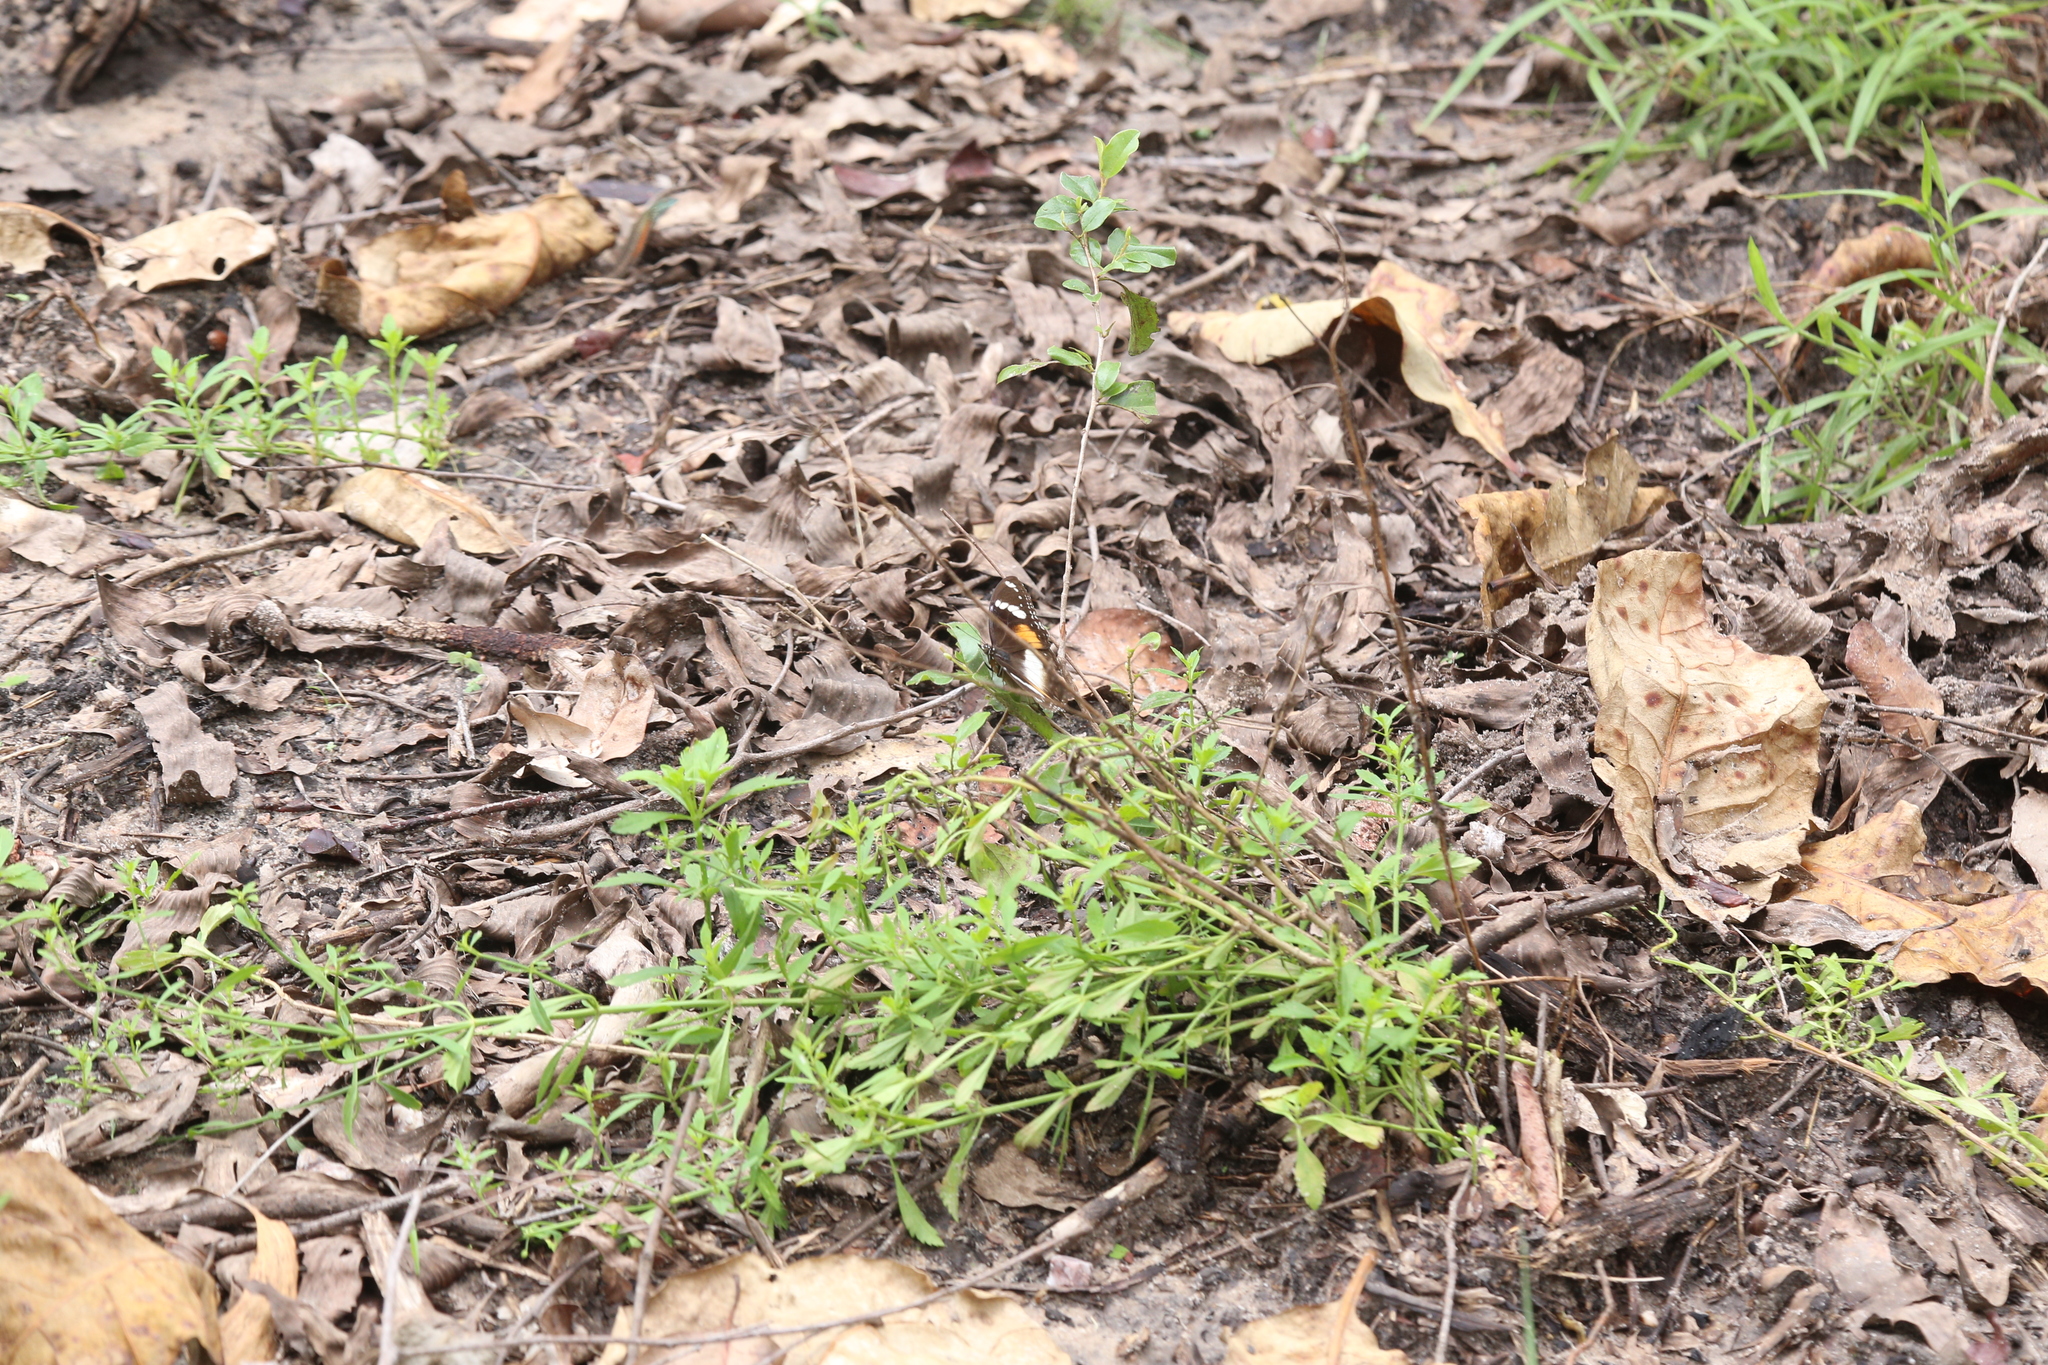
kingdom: Animalia
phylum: Arthropoda
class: Insecta
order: Lepidoptera
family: Nymphalidae
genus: Hypolimnas
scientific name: Hypolimnas bolina
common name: Great eggfly
